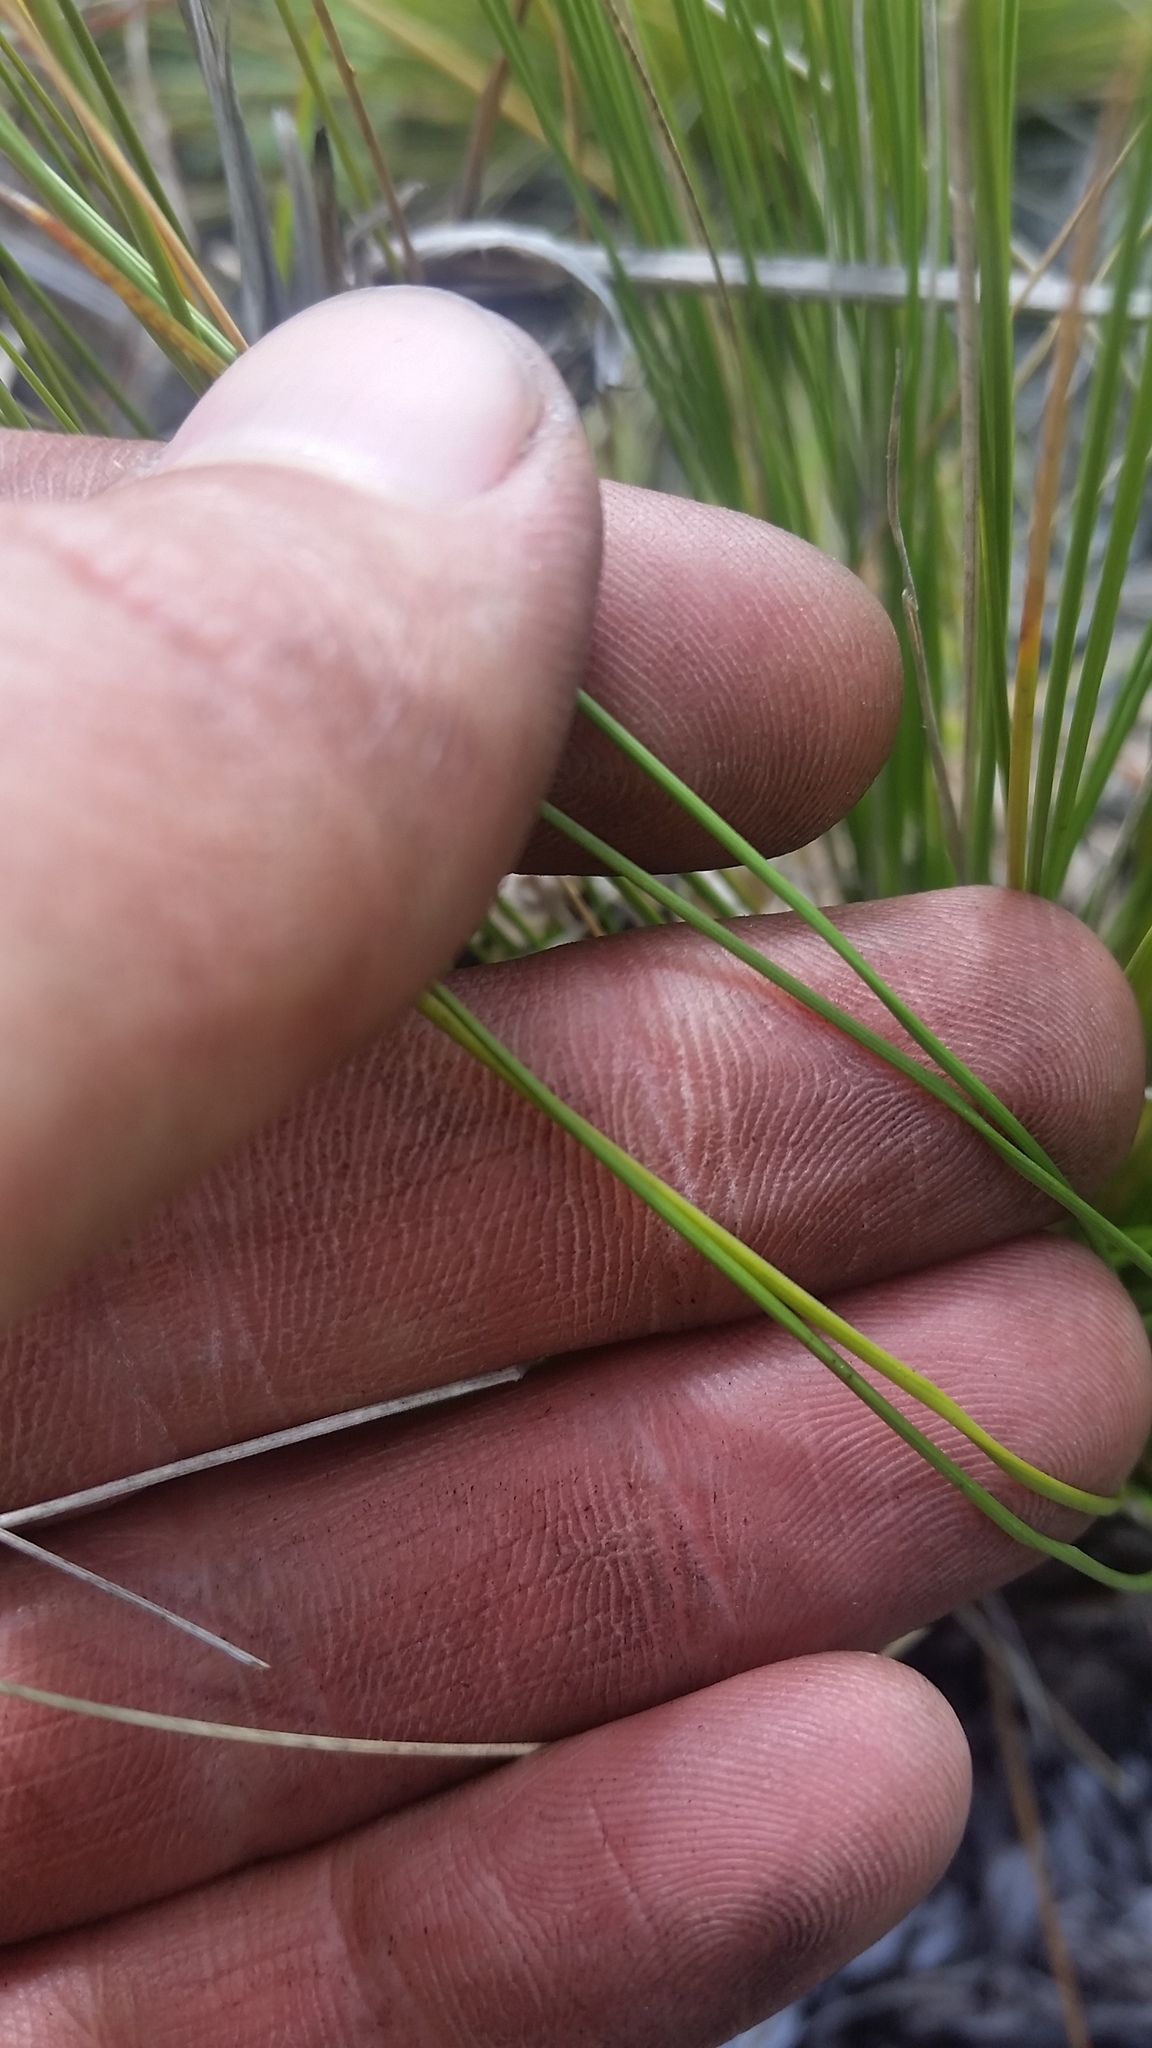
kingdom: Plantae
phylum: Tracheophyta
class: Liliopsida
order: Poales
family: Poaceae
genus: Deschampsia
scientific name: Deschampsia nubigena
